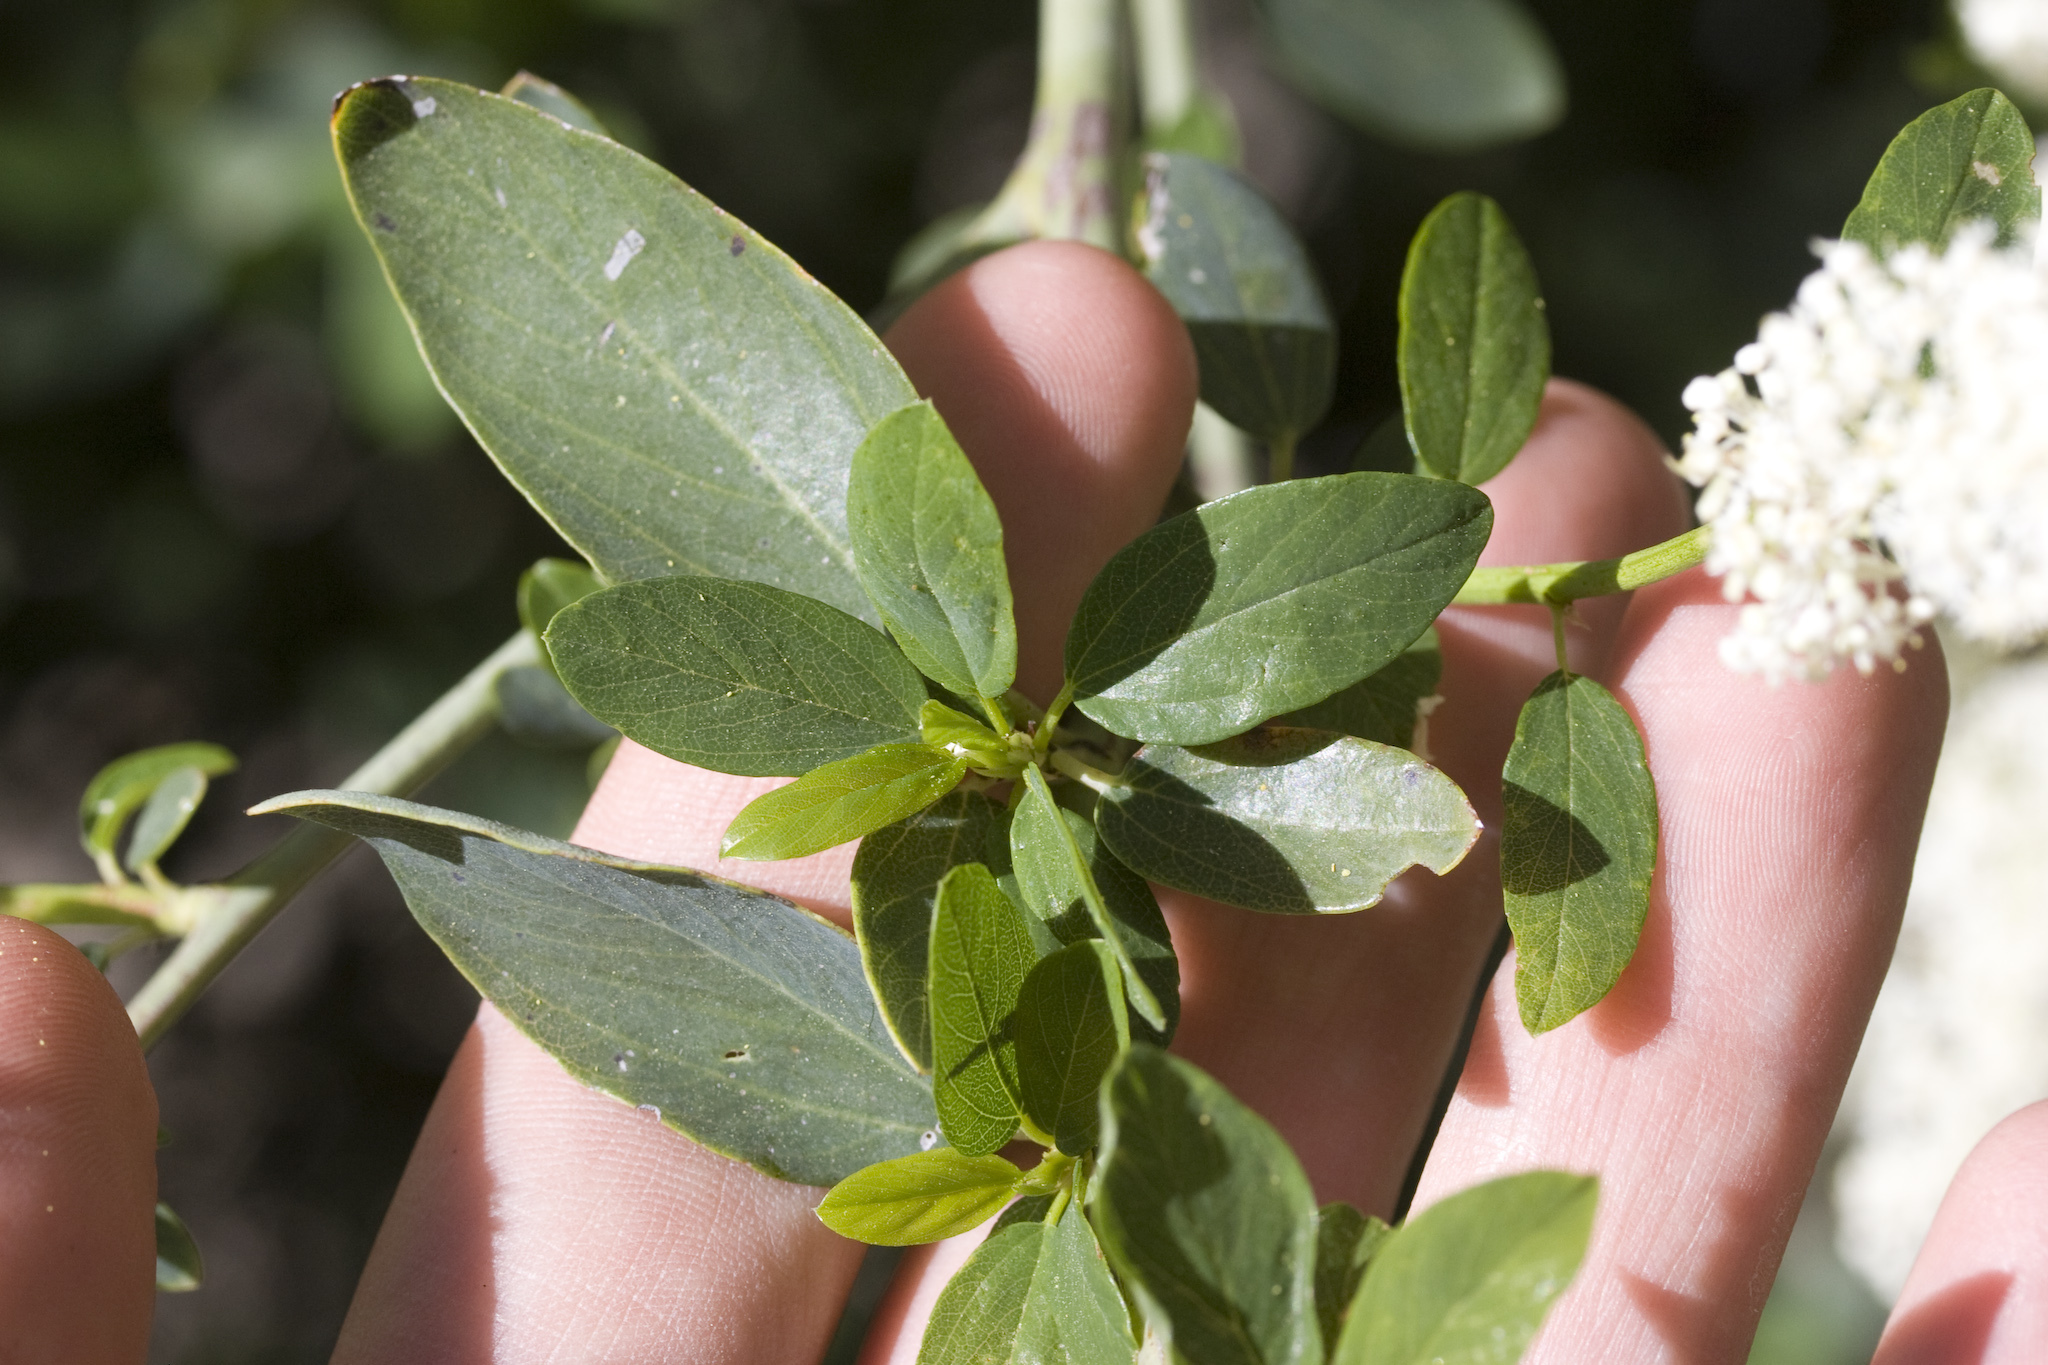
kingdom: Plantae
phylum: Tracheophyta
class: Magnoliopsida
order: Rosales
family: Rhamnaceae
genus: Ceanothus
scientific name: Ceanothus integerrimus
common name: Deerbrush ceanothus
